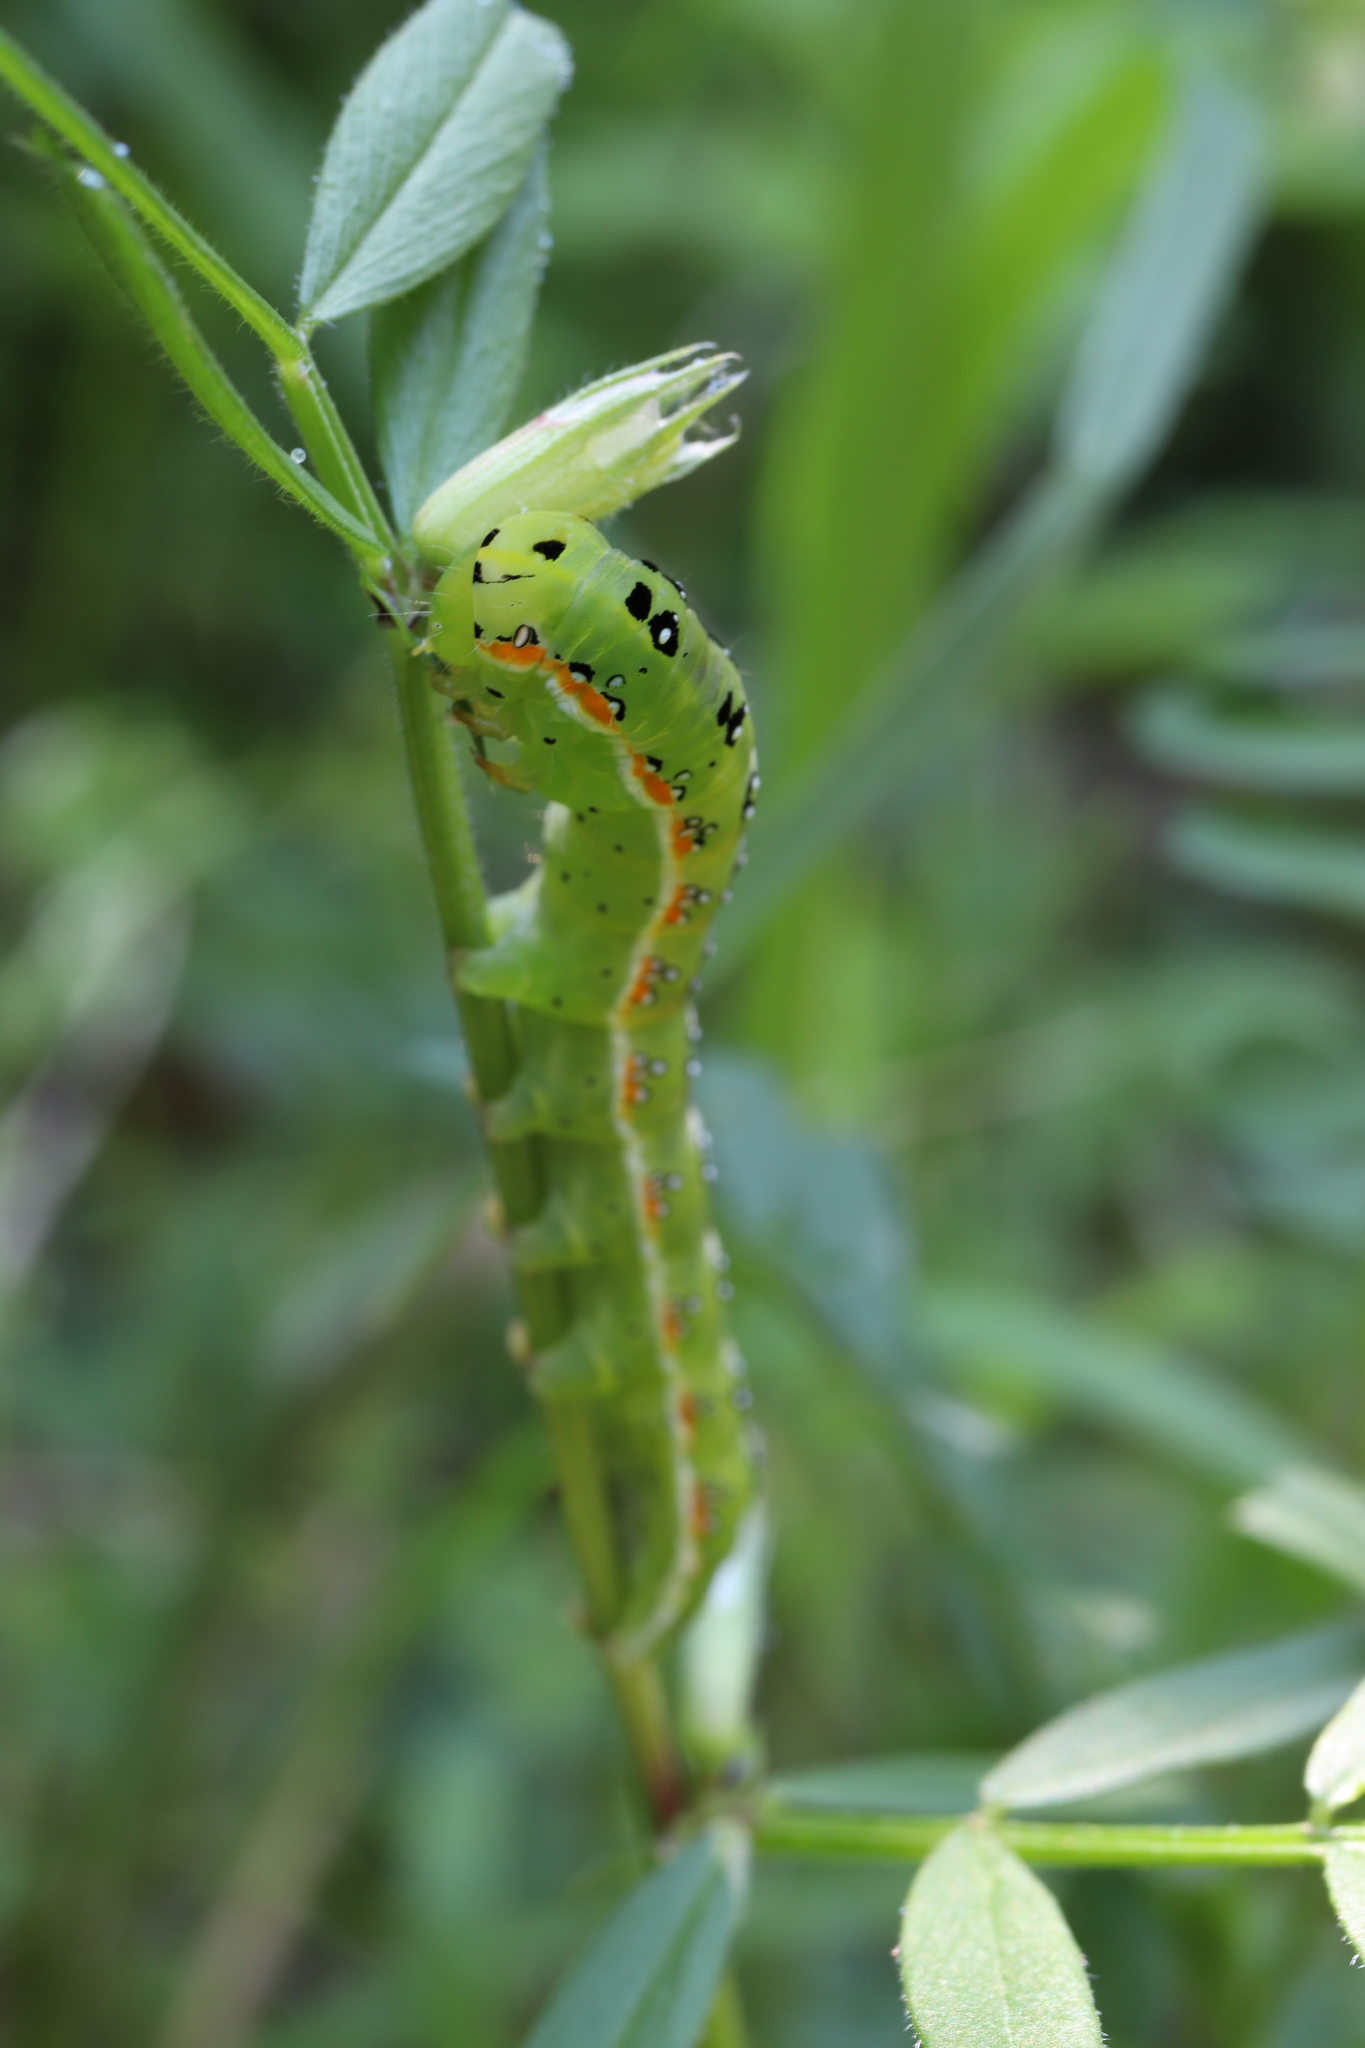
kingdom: Animalia
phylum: Arthropoda
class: Insecta
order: Lepidoptera
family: Noctuidae
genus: Xylena
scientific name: Xylena fumosa
